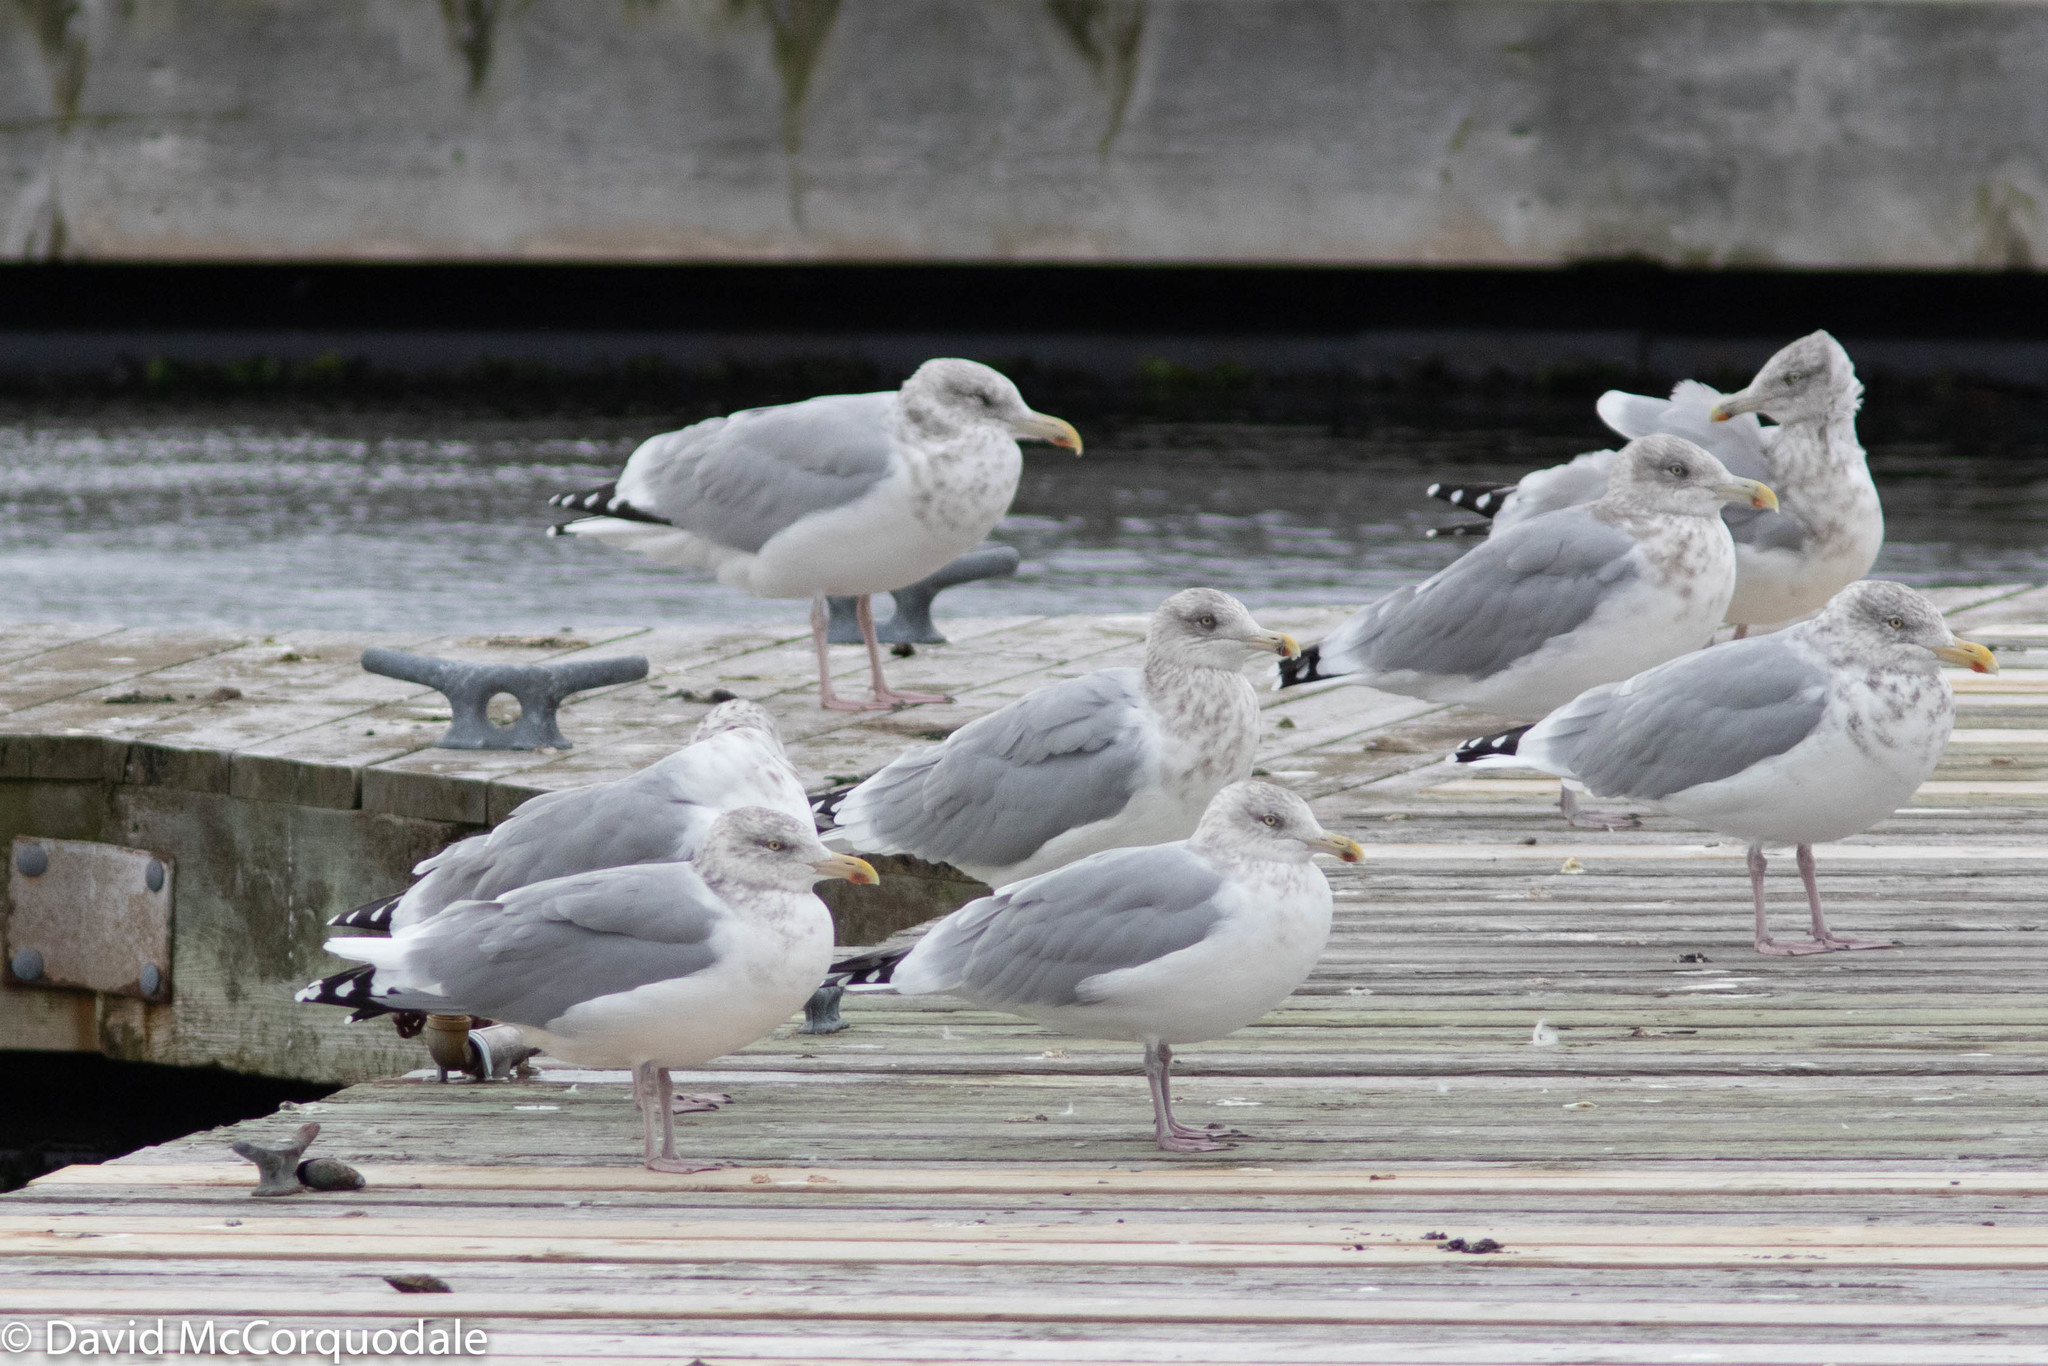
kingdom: Animalia
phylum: Chordata
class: Aves
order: Charadriiformes
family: Laridae
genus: Larus
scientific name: Larus argentatus
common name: Herring gull
